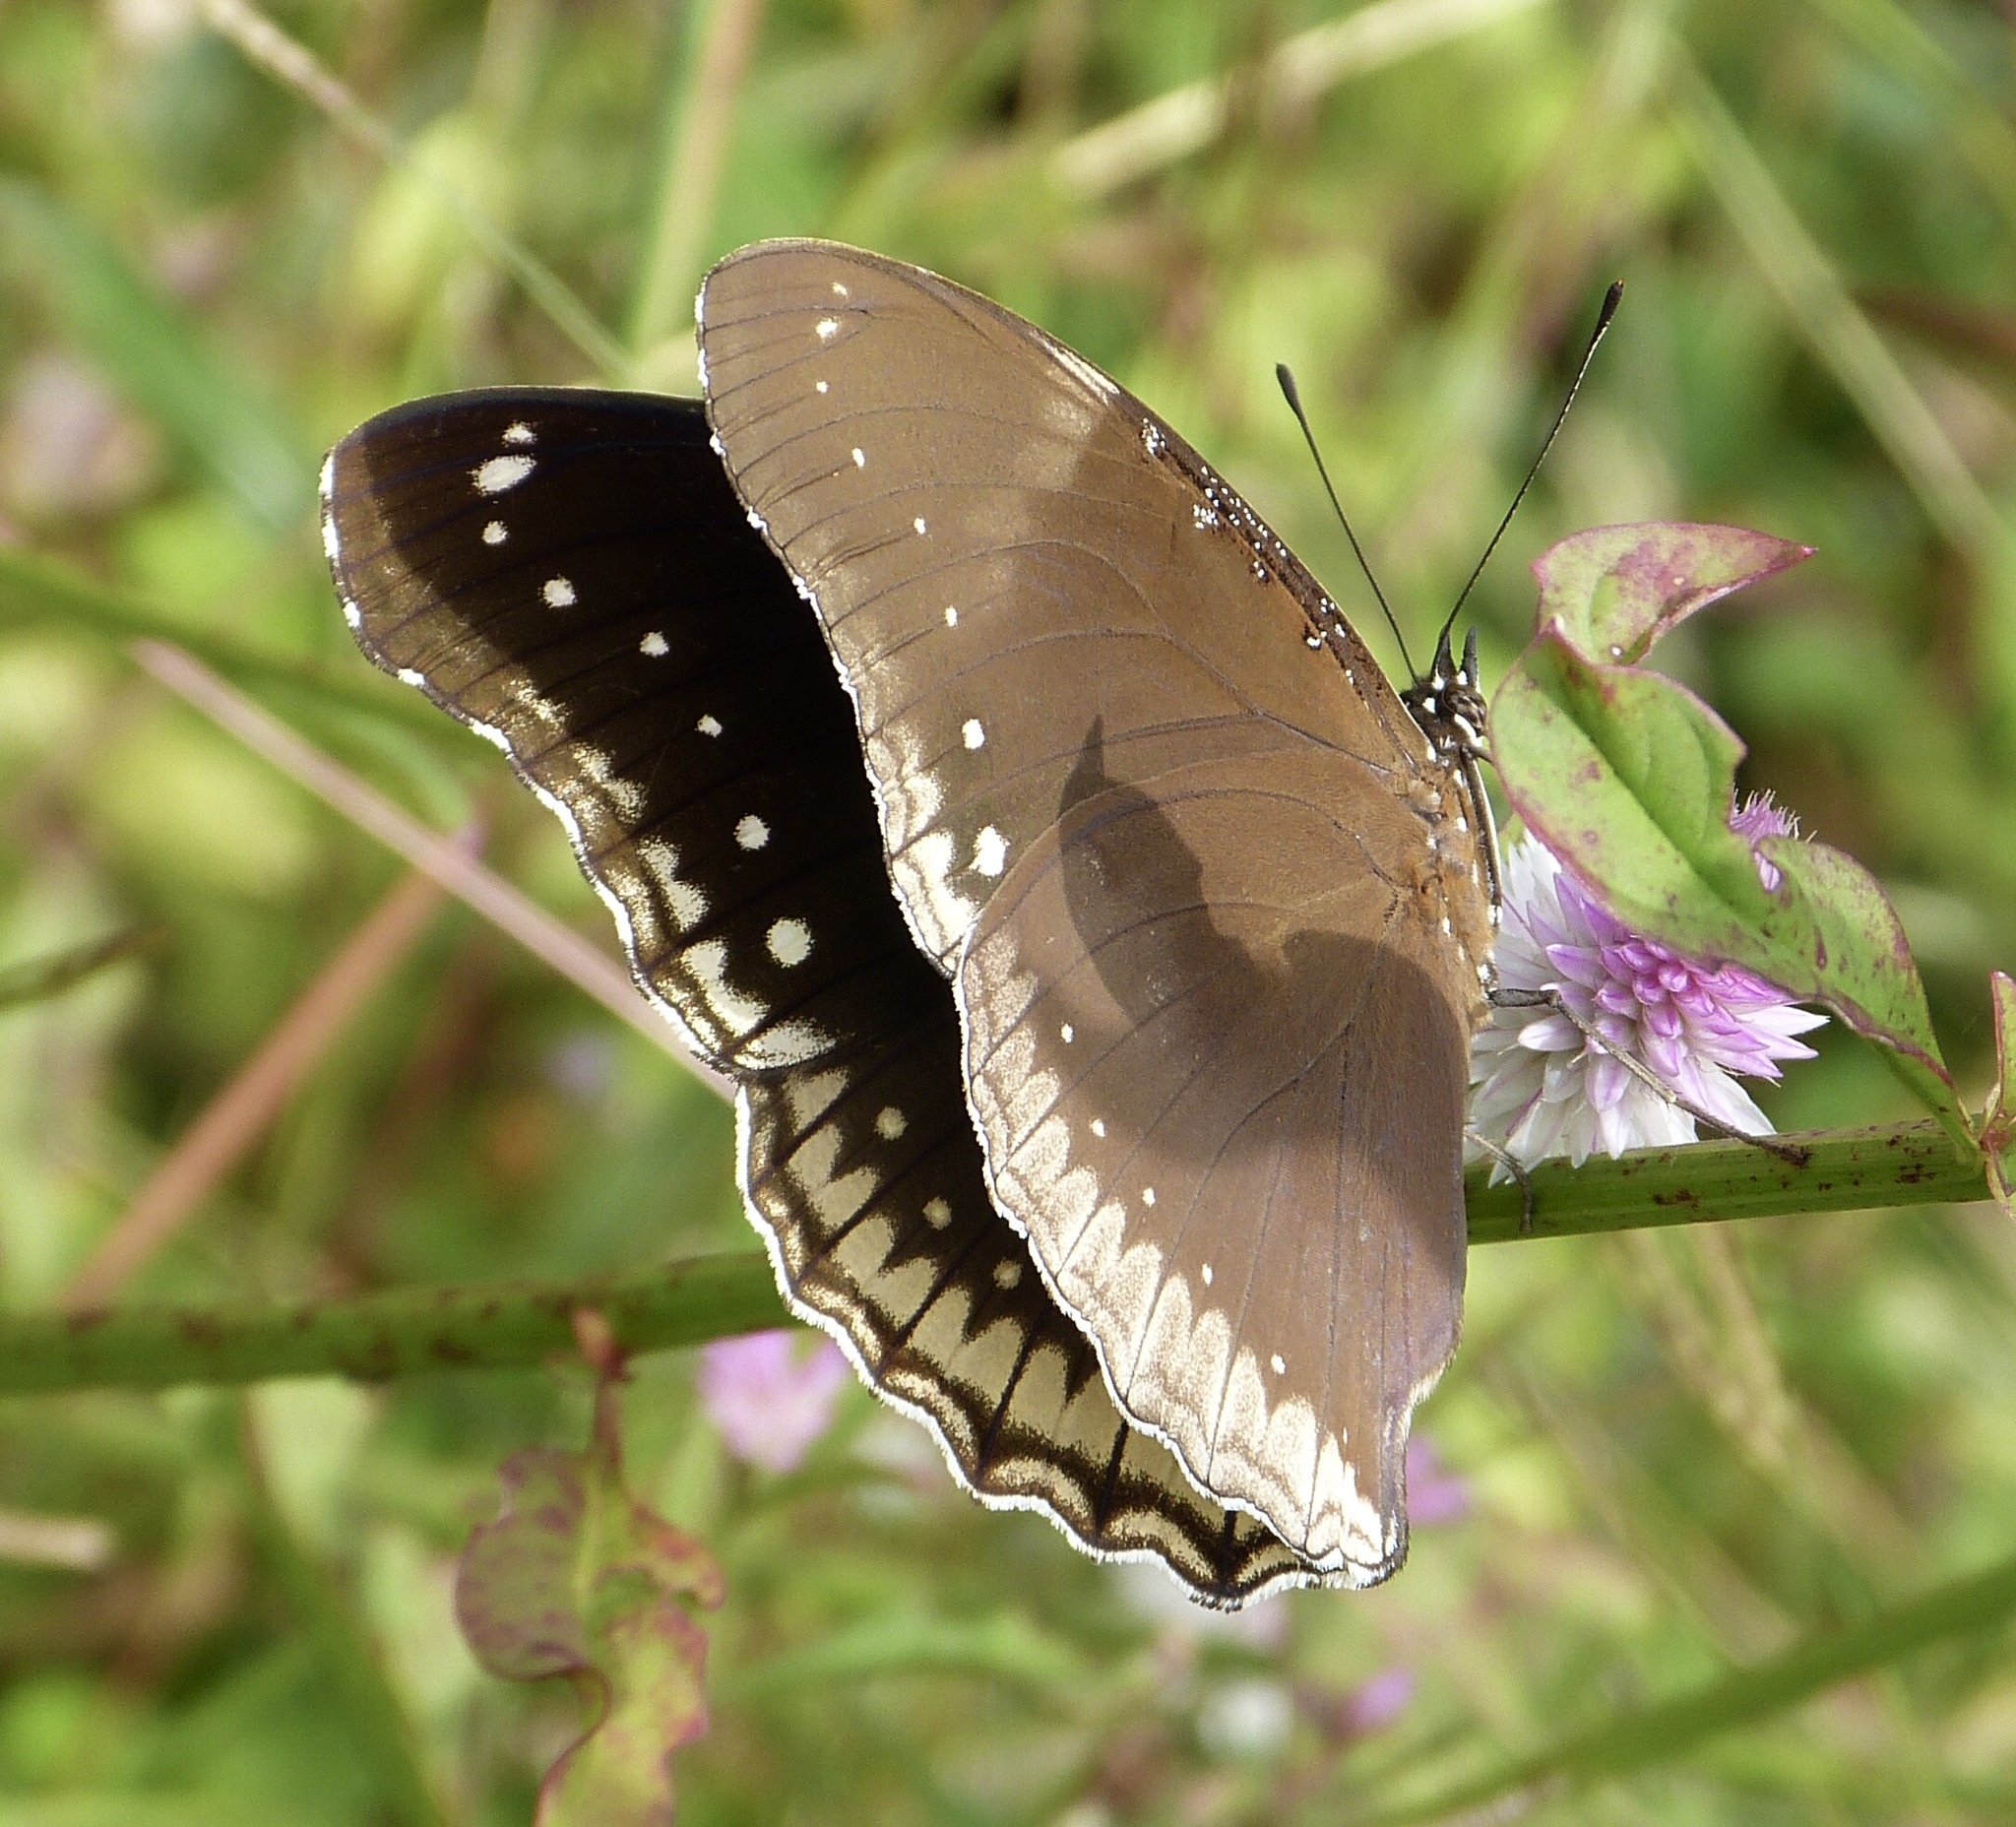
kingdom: Animalia
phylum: Arthropoda
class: Insecta
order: Lepidoptera
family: Nymphalidae
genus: Hypolimnas
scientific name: Hypolimnas bolina
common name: Great eggfly
